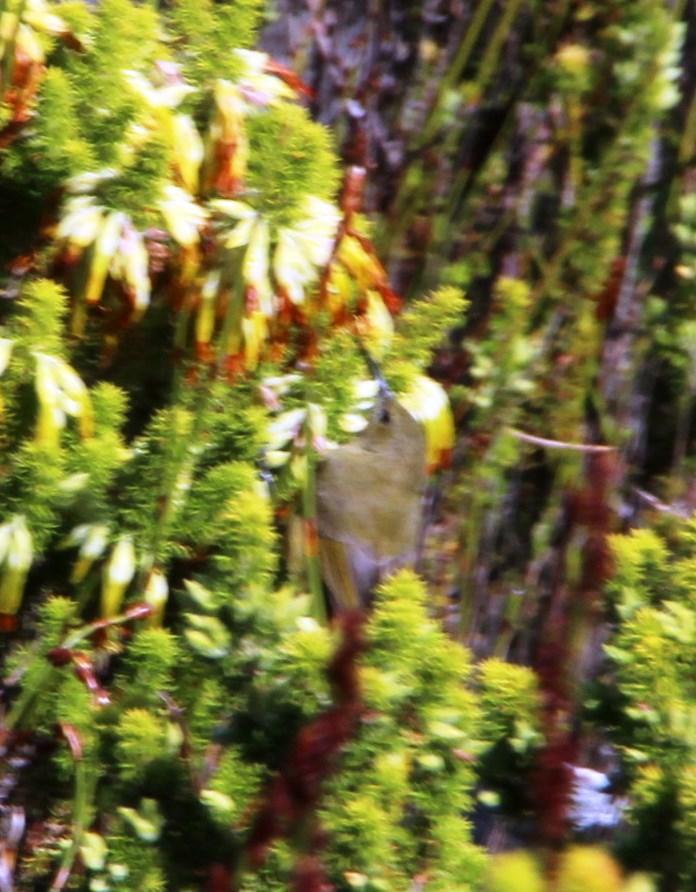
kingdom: Animalia
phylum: Chordata
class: Aves
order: Passeriformes
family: Nectariniidae
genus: Anthobaphes
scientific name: Anthobaphes violacea
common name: Orange-breasted sunbird
